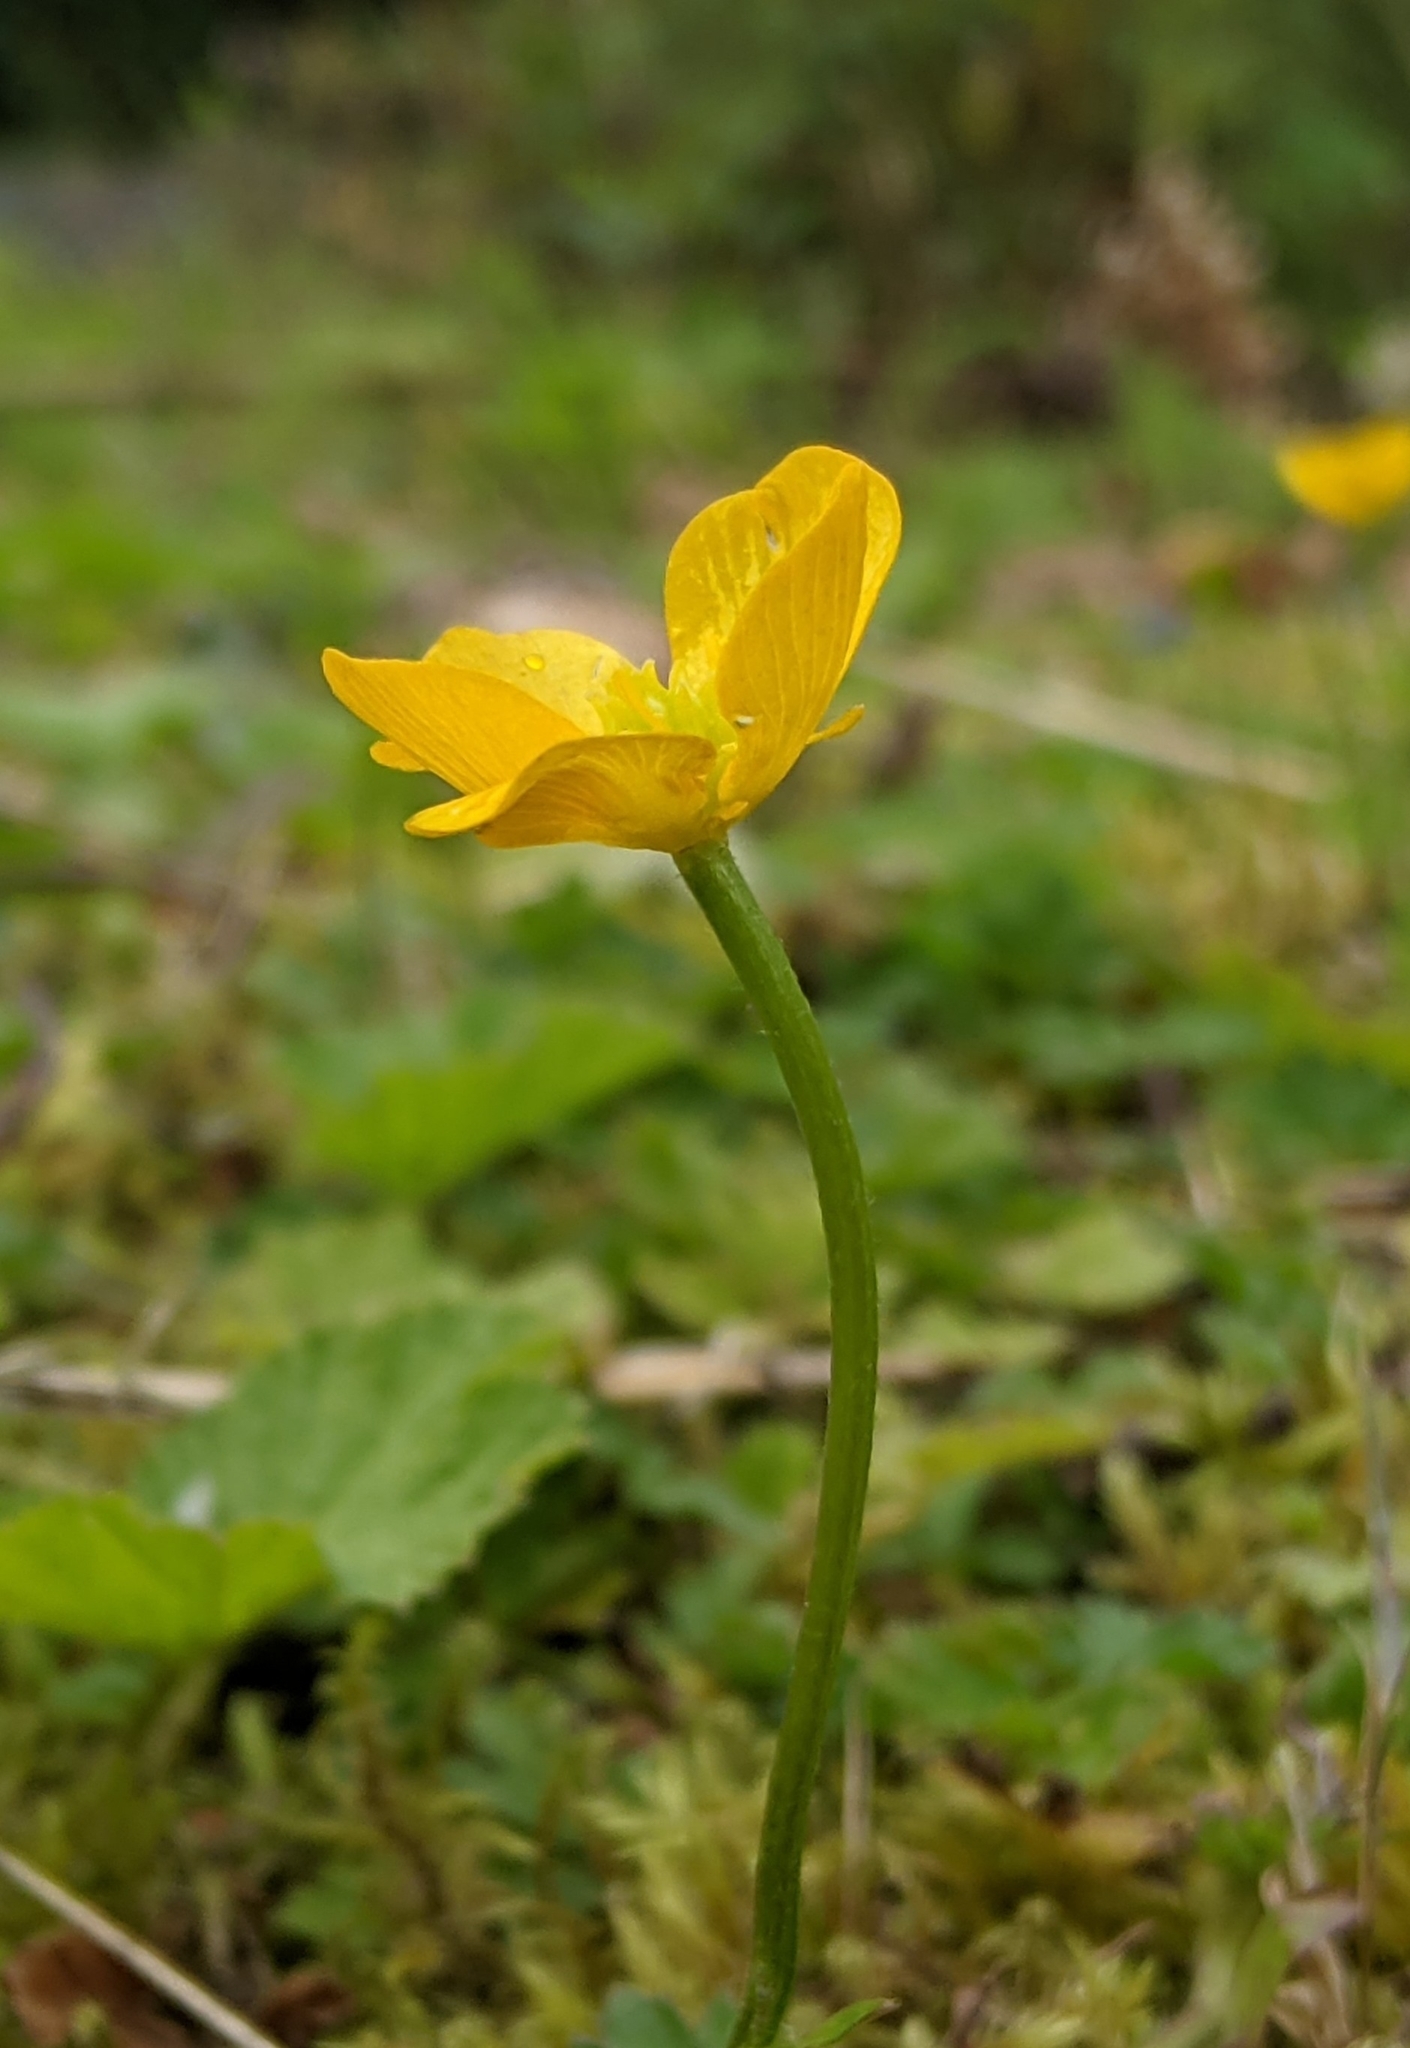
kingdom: Plantae
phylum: Tracheophyta
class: Magnoliopsida
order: Ranunculales
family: Ranunculaceae
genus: Ranunculus
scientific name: Ranunculus repens
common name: Creeping buttercup
